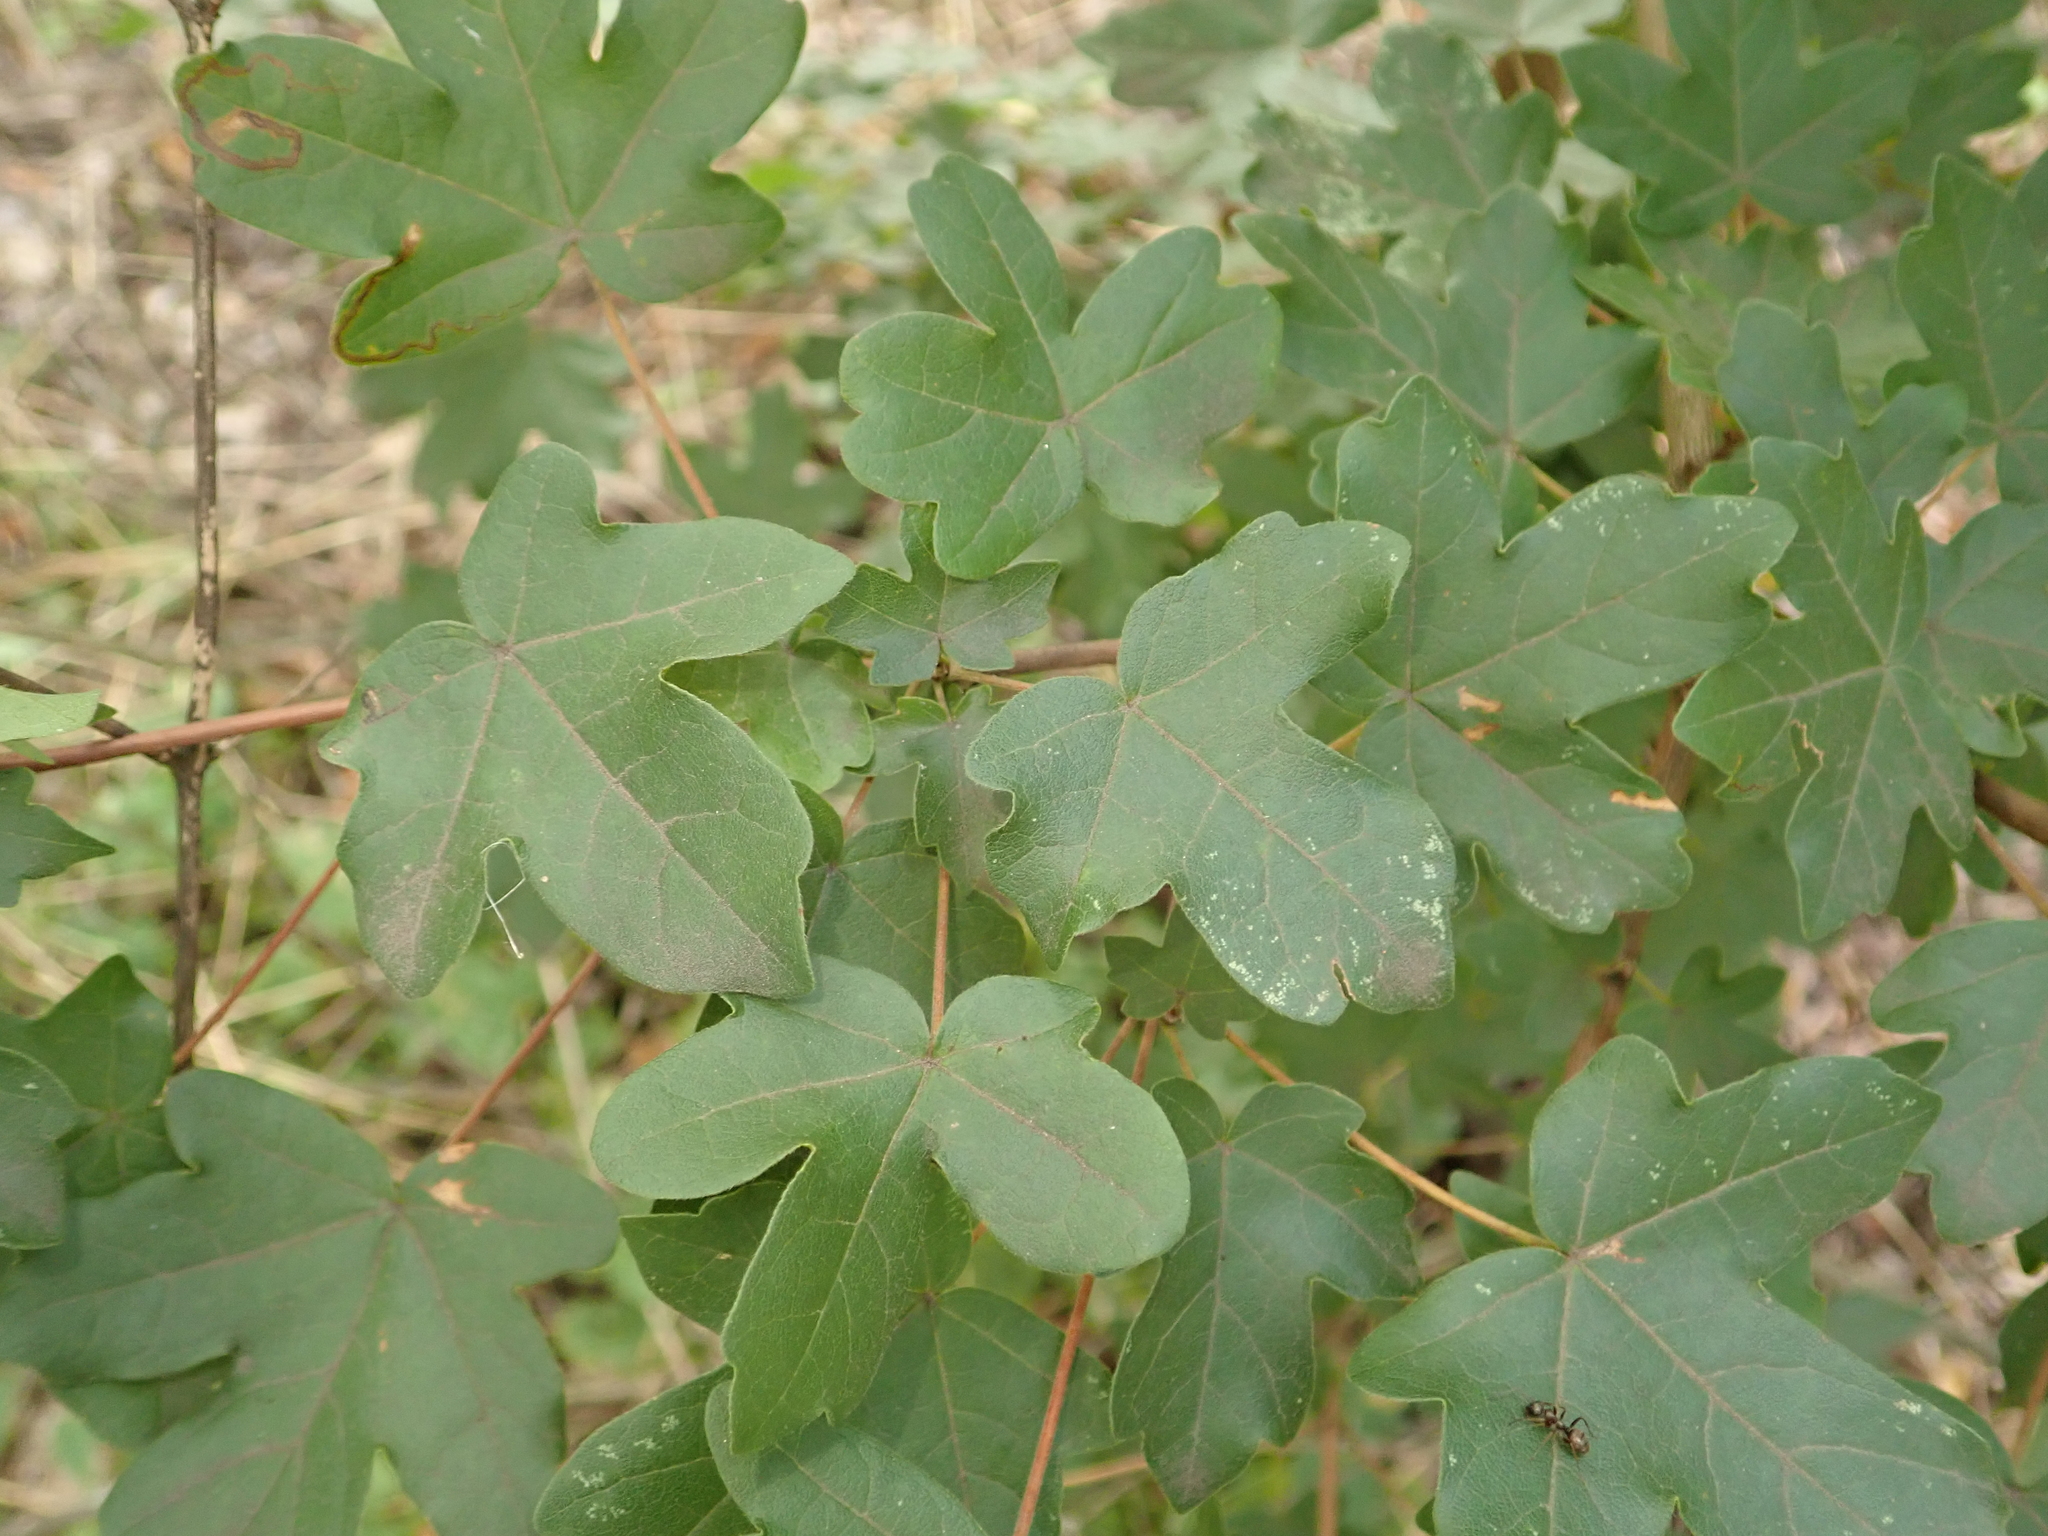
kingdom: Plantae
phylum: Tracheophyta
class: Magnoliopsida
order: Sapindales
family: Sapindaceae
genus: Acer
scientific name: Acer campestre
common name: Field maple
